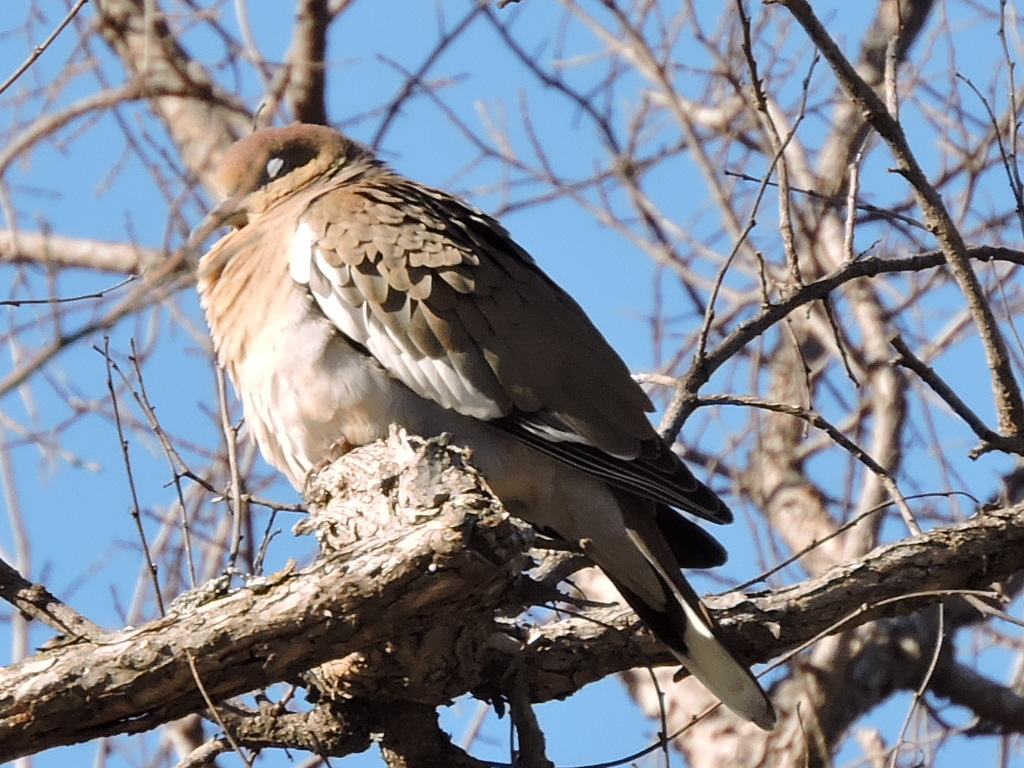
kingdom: Animalia
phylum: Chordata
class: Aves
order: Columbiformes
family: Columbidae
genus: Zenaida
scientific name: Zenaida asiatica
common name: White-winged dove
